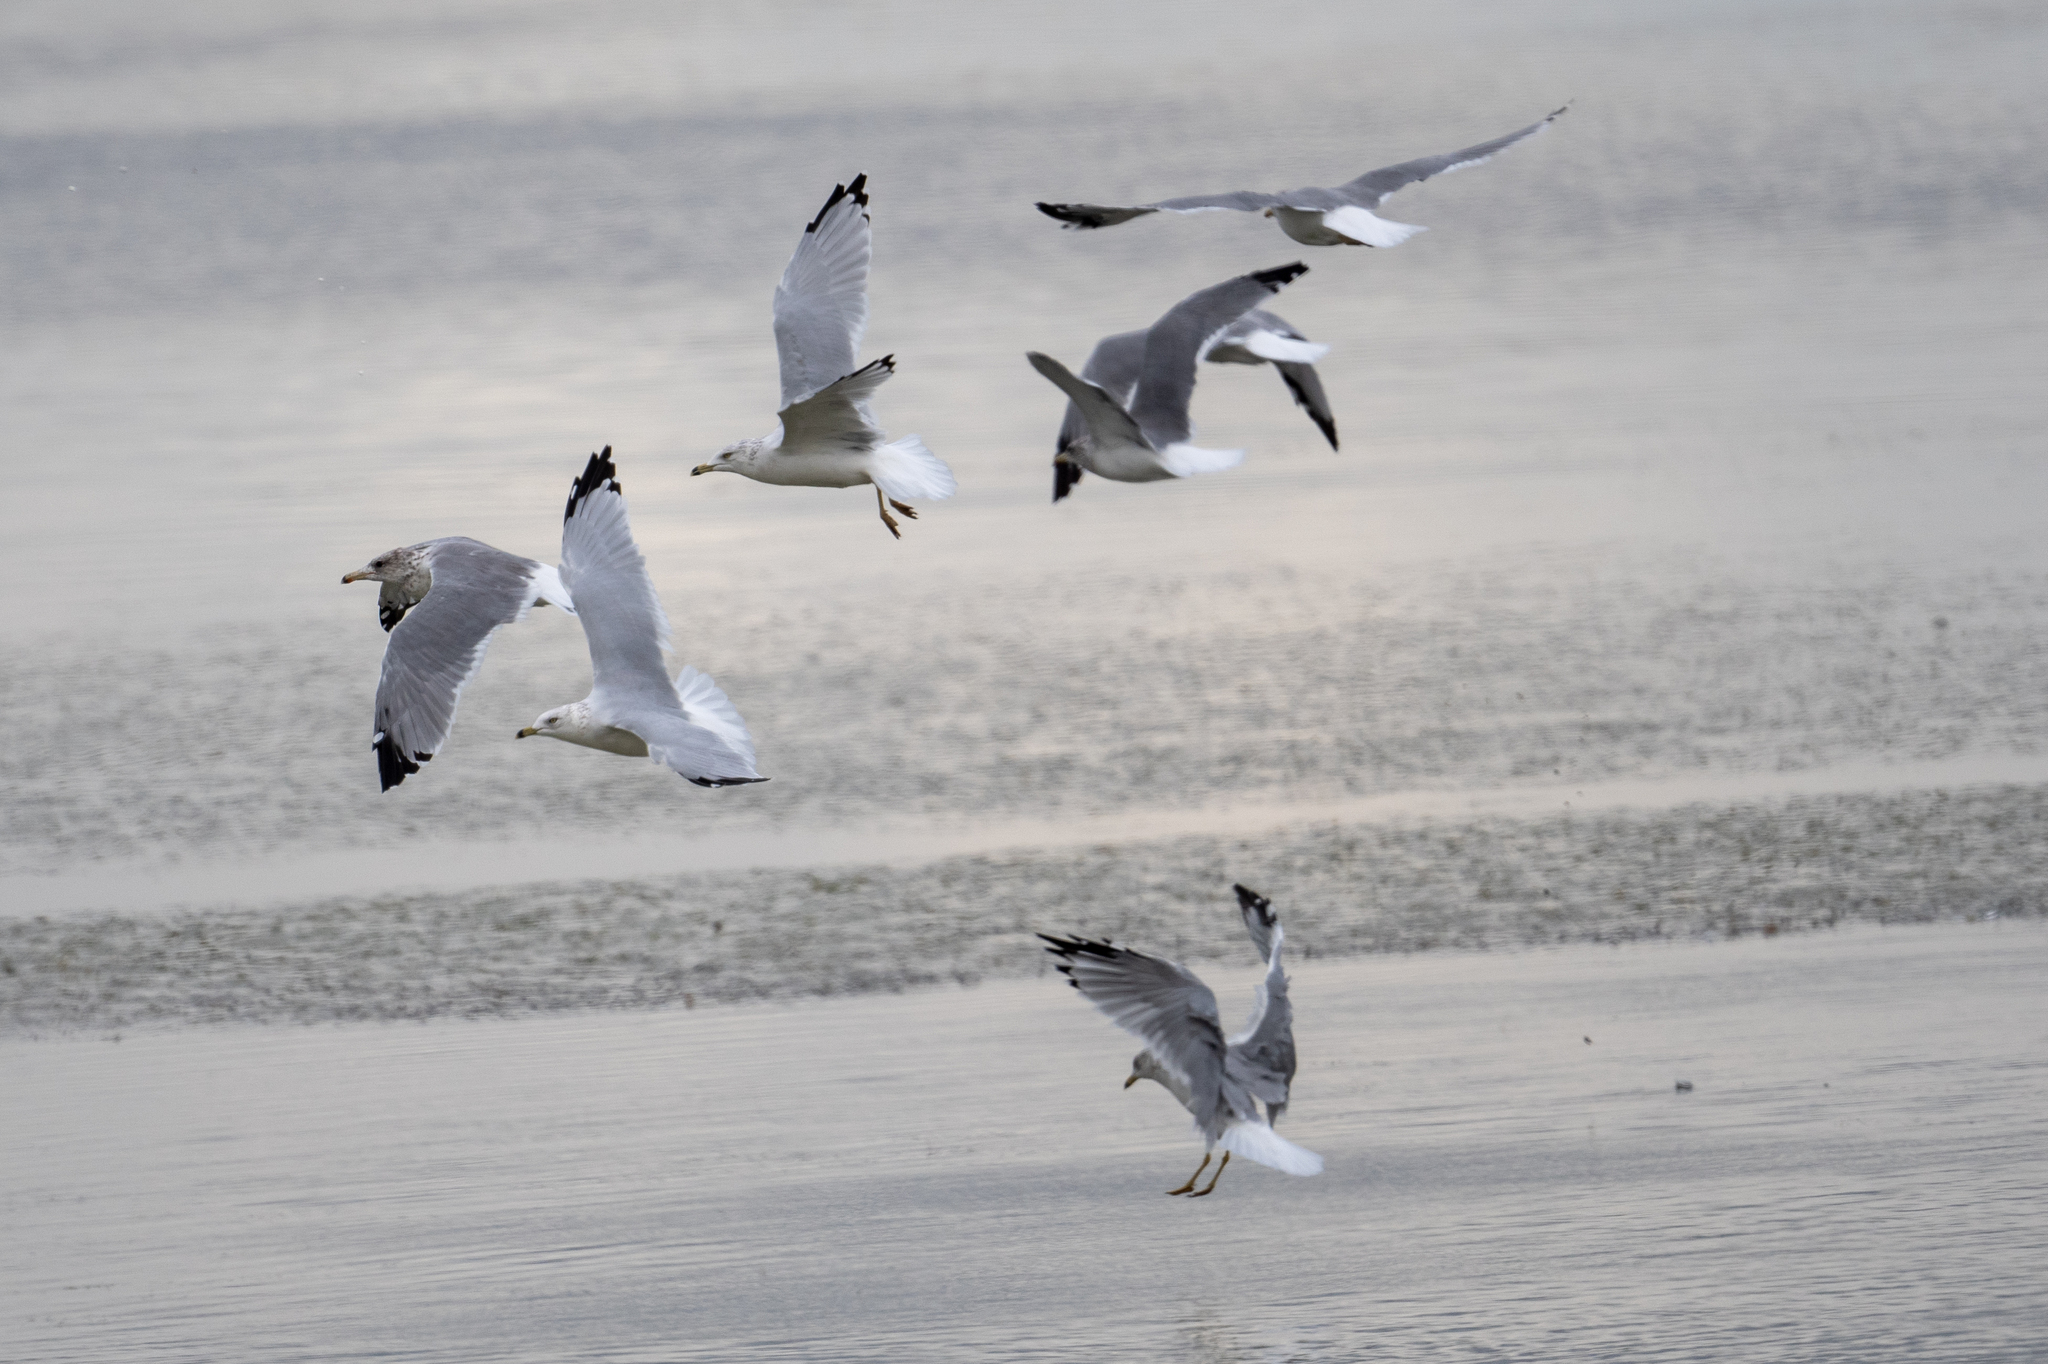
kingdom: Animalia
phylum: Chordata
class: Aves
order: Charadriiformes
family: Laridae
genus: Larus
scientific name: Larus californicus
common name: California gull
